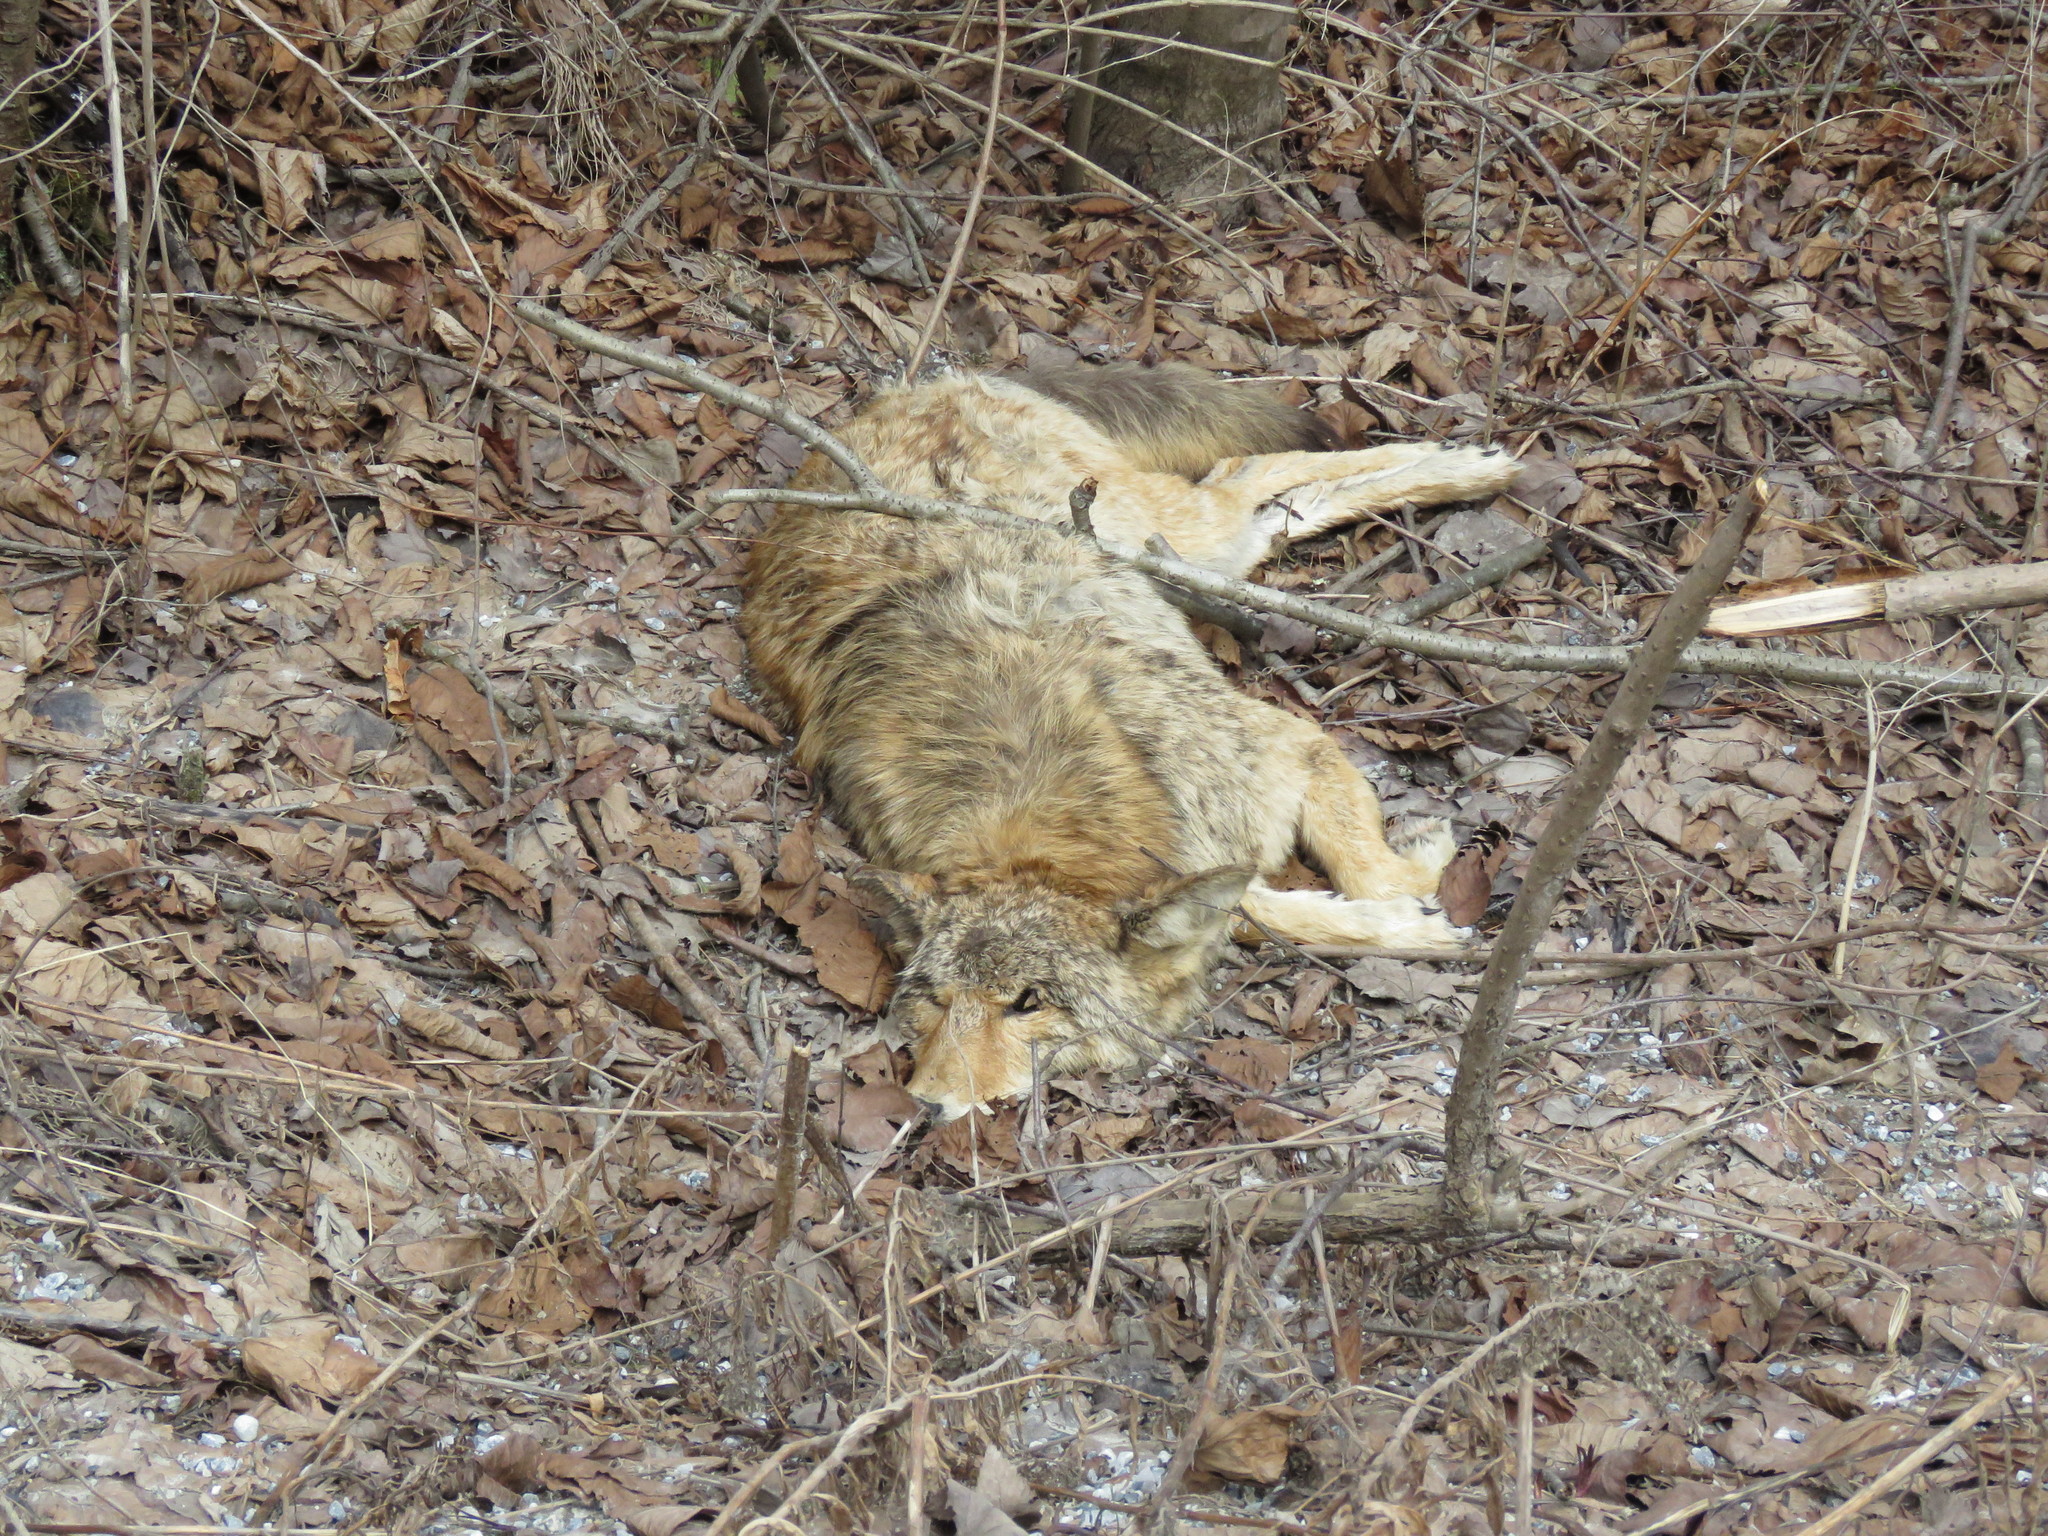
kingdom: Animalia
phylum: Chordata
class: Mammalia
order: Carnivora
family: Canidae
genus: Canis
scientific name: Canis latrans
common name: Coyote
